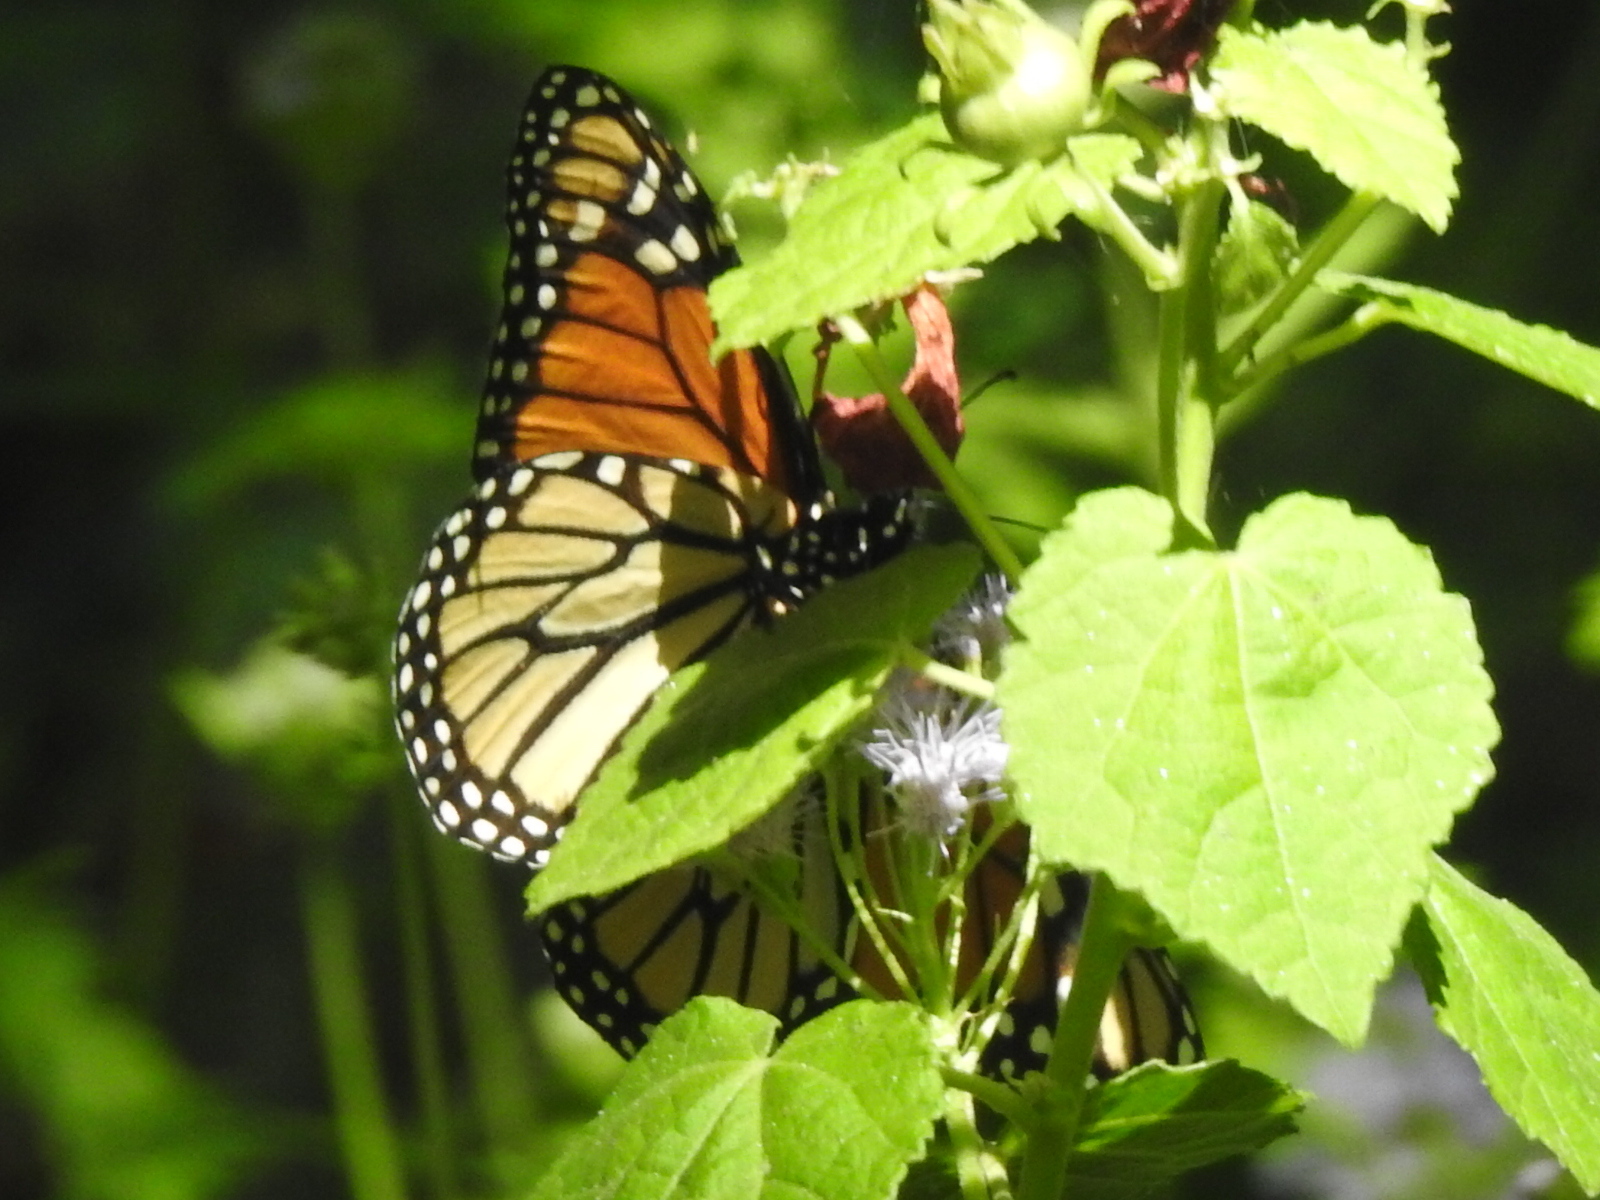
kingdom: Animalia
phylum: Arthropoda
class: Insecta
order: Lepidoptera
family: Nymphalidae
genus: Danaus
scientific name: Danaus plexippus
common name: Monarch
